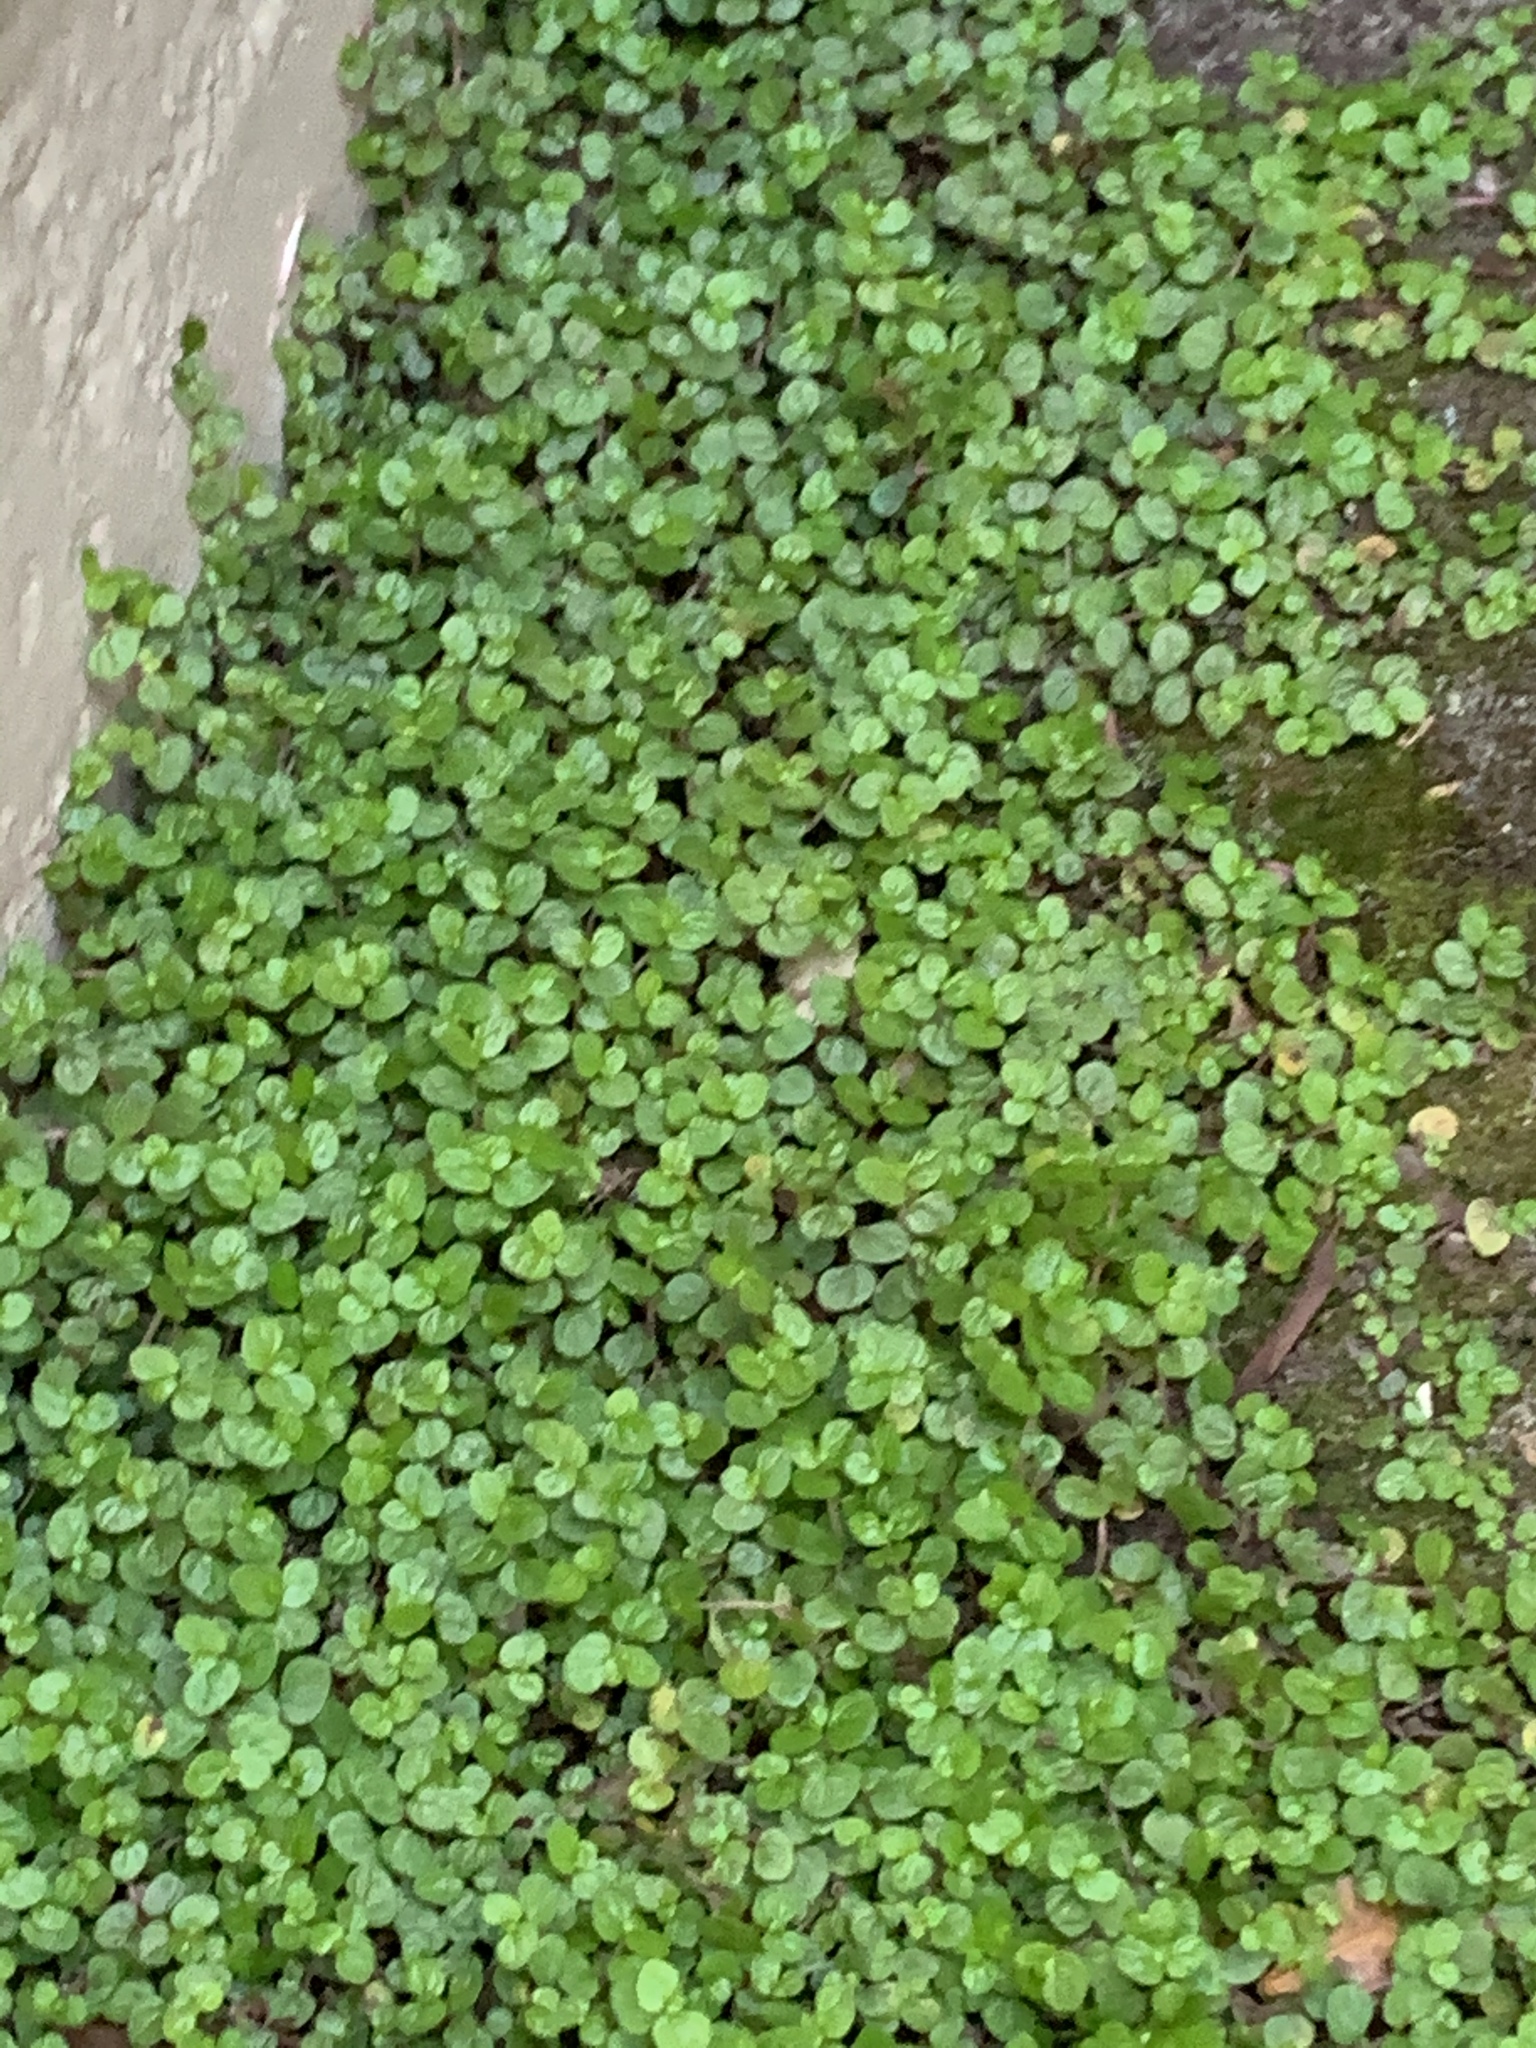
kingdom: Plantae
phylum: Tracheophyta
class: Magnoliopsida
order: Rosales
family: Urticaceae
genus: Soleirolia
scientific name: Soleirolia soleirolii
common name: Mind-your-own-business
